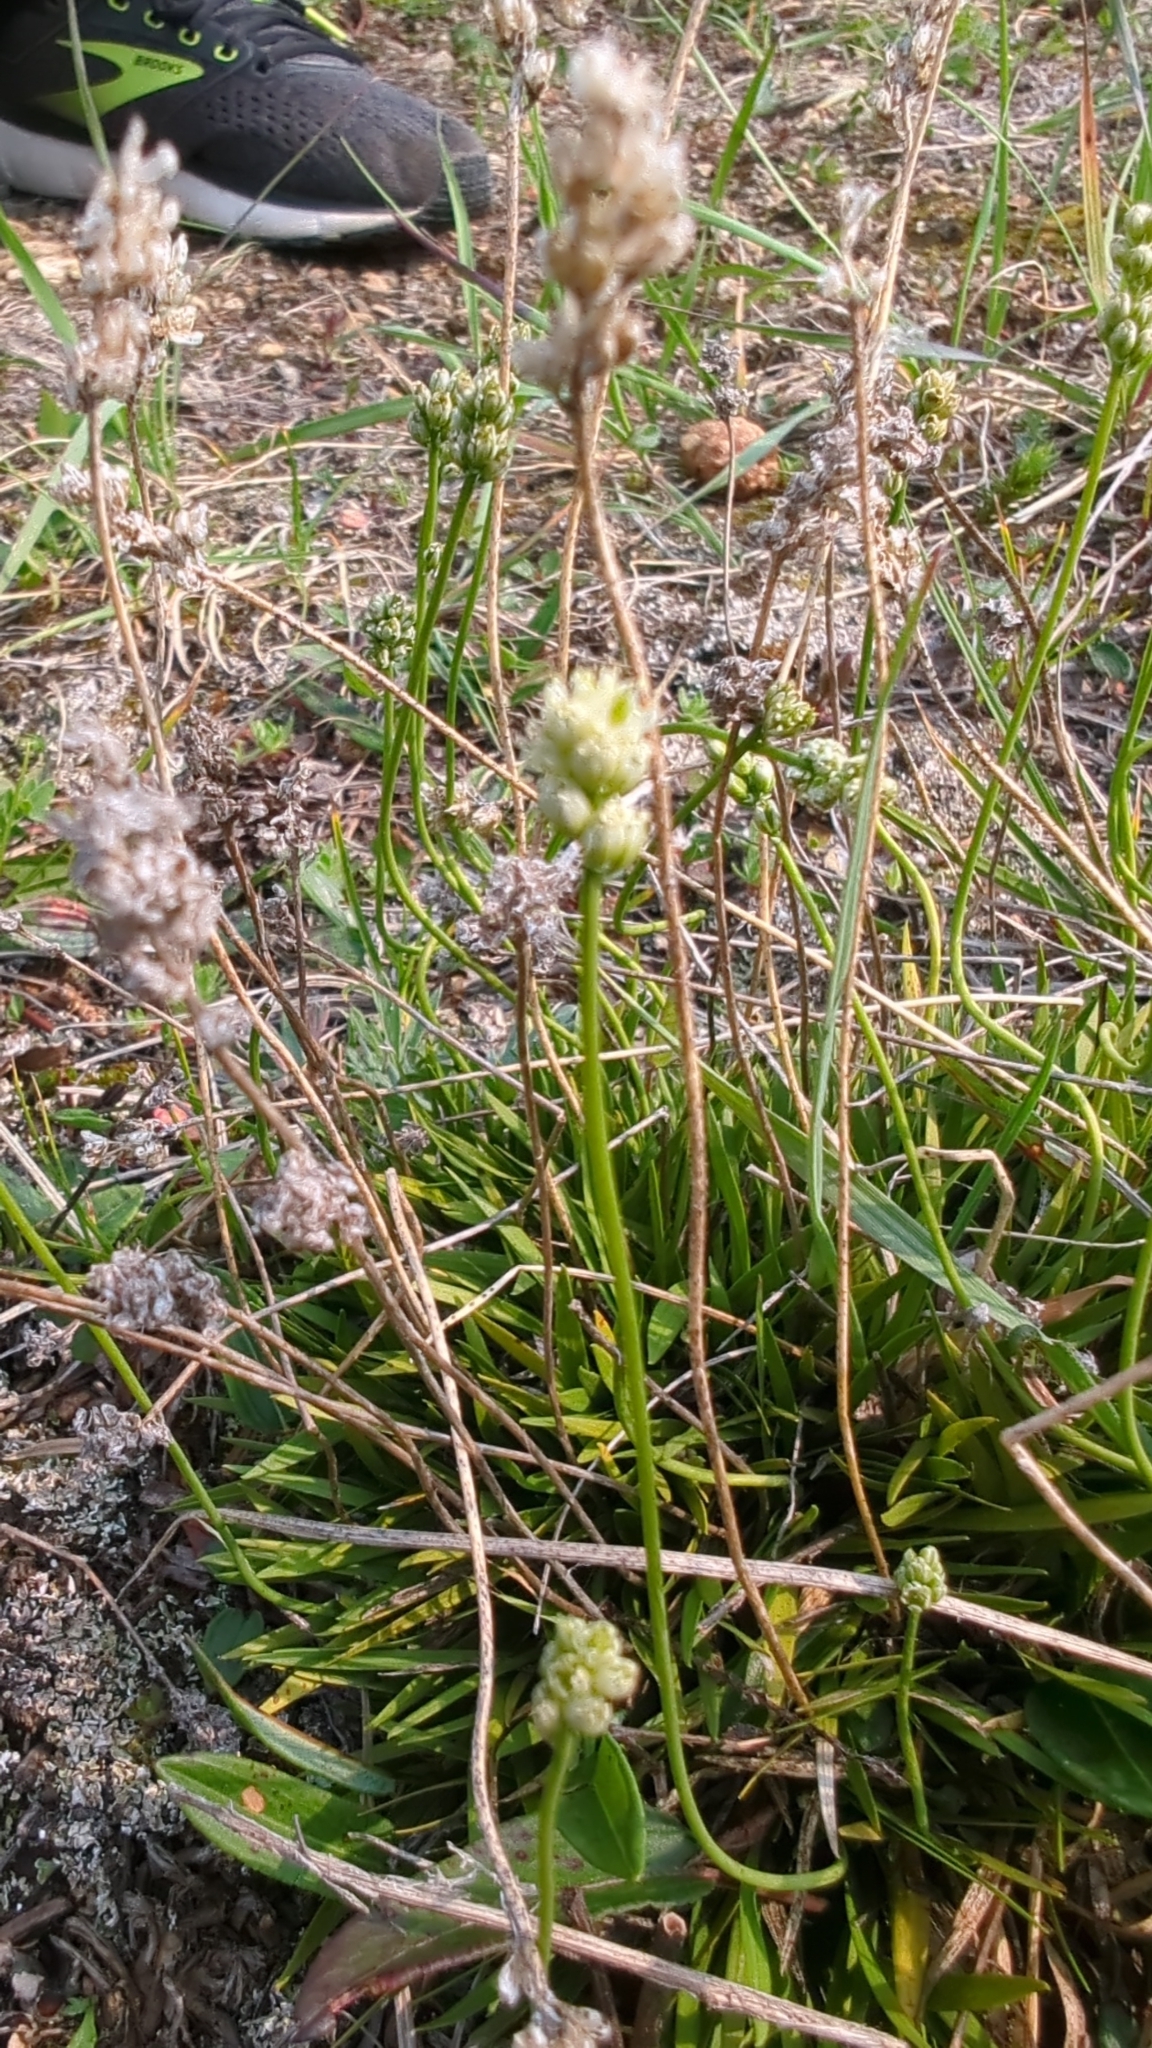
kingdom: Plantae
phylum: Tracheophyta
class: Liliopsida
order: Alismatales
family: Tofieldiaceae
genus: Tofieldia
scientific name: Tofieldia pusilla
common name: Scottish false asphodel
